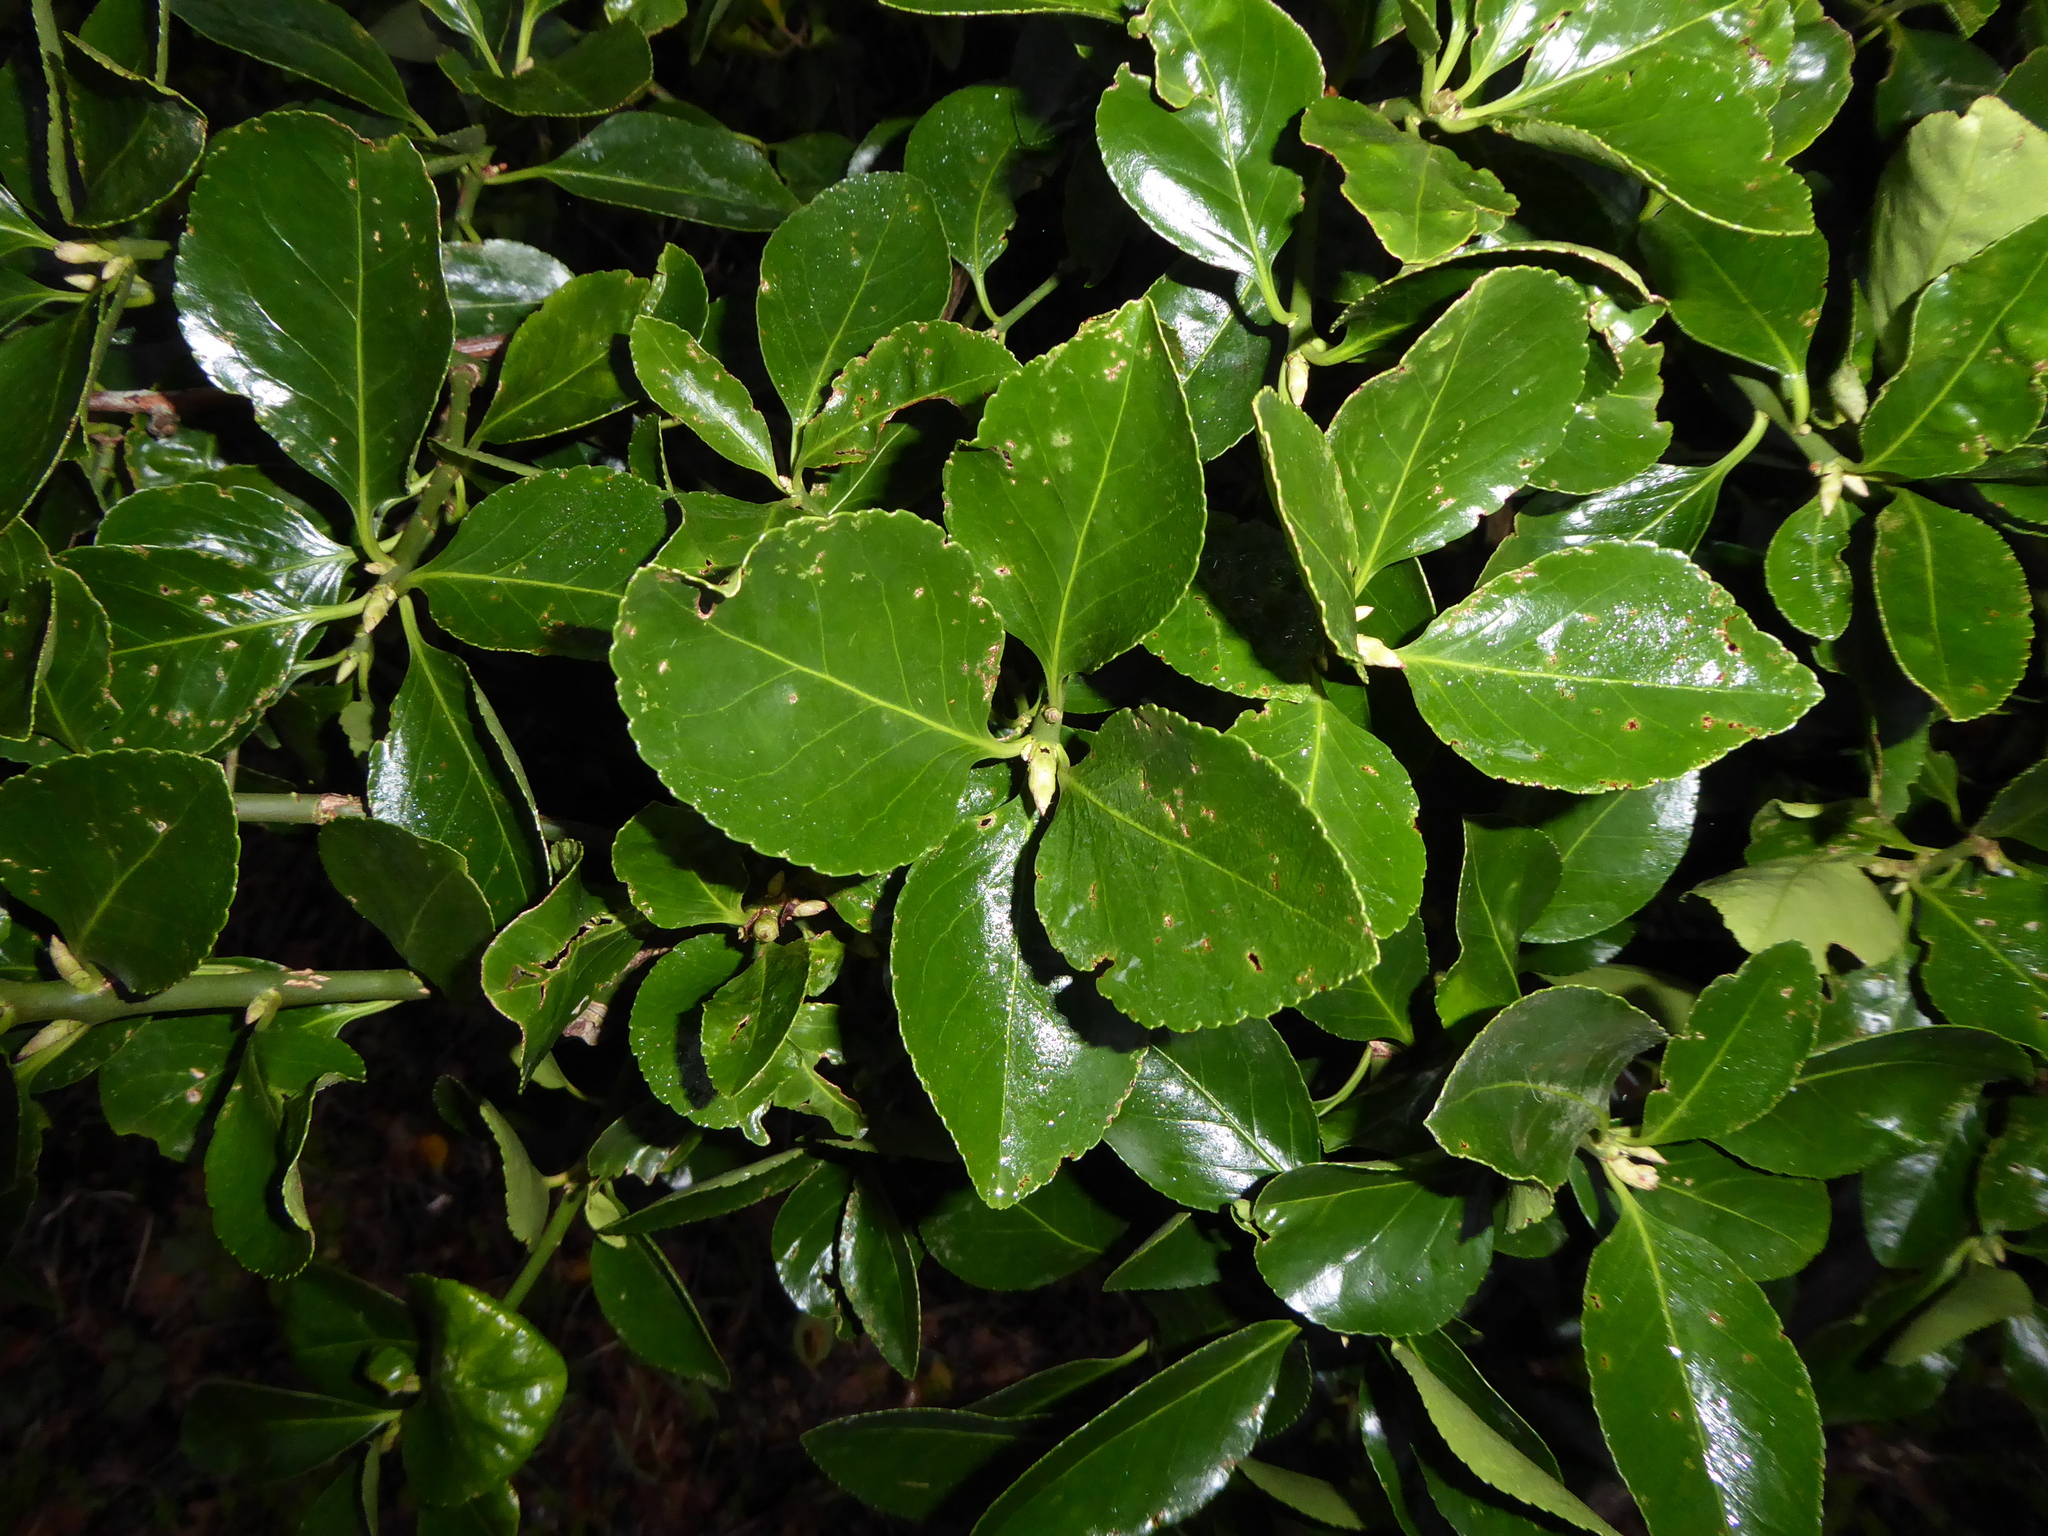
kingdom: Plantae
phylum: Tracheophyta
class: Magnoliopsida
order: Celastrales
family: Celastraceae
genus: Euonymus
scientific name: Euonymus japonicus
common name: Japanese spindletree
